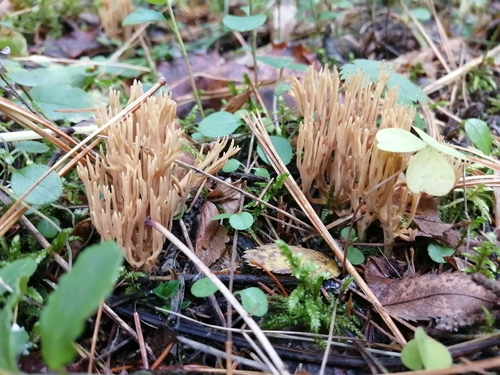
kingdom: Fungi
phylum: Basidiomycota
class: Agaricomycetes
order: Gomphales
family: Gomphaceae
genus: Ramaria
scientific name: Ramaria
